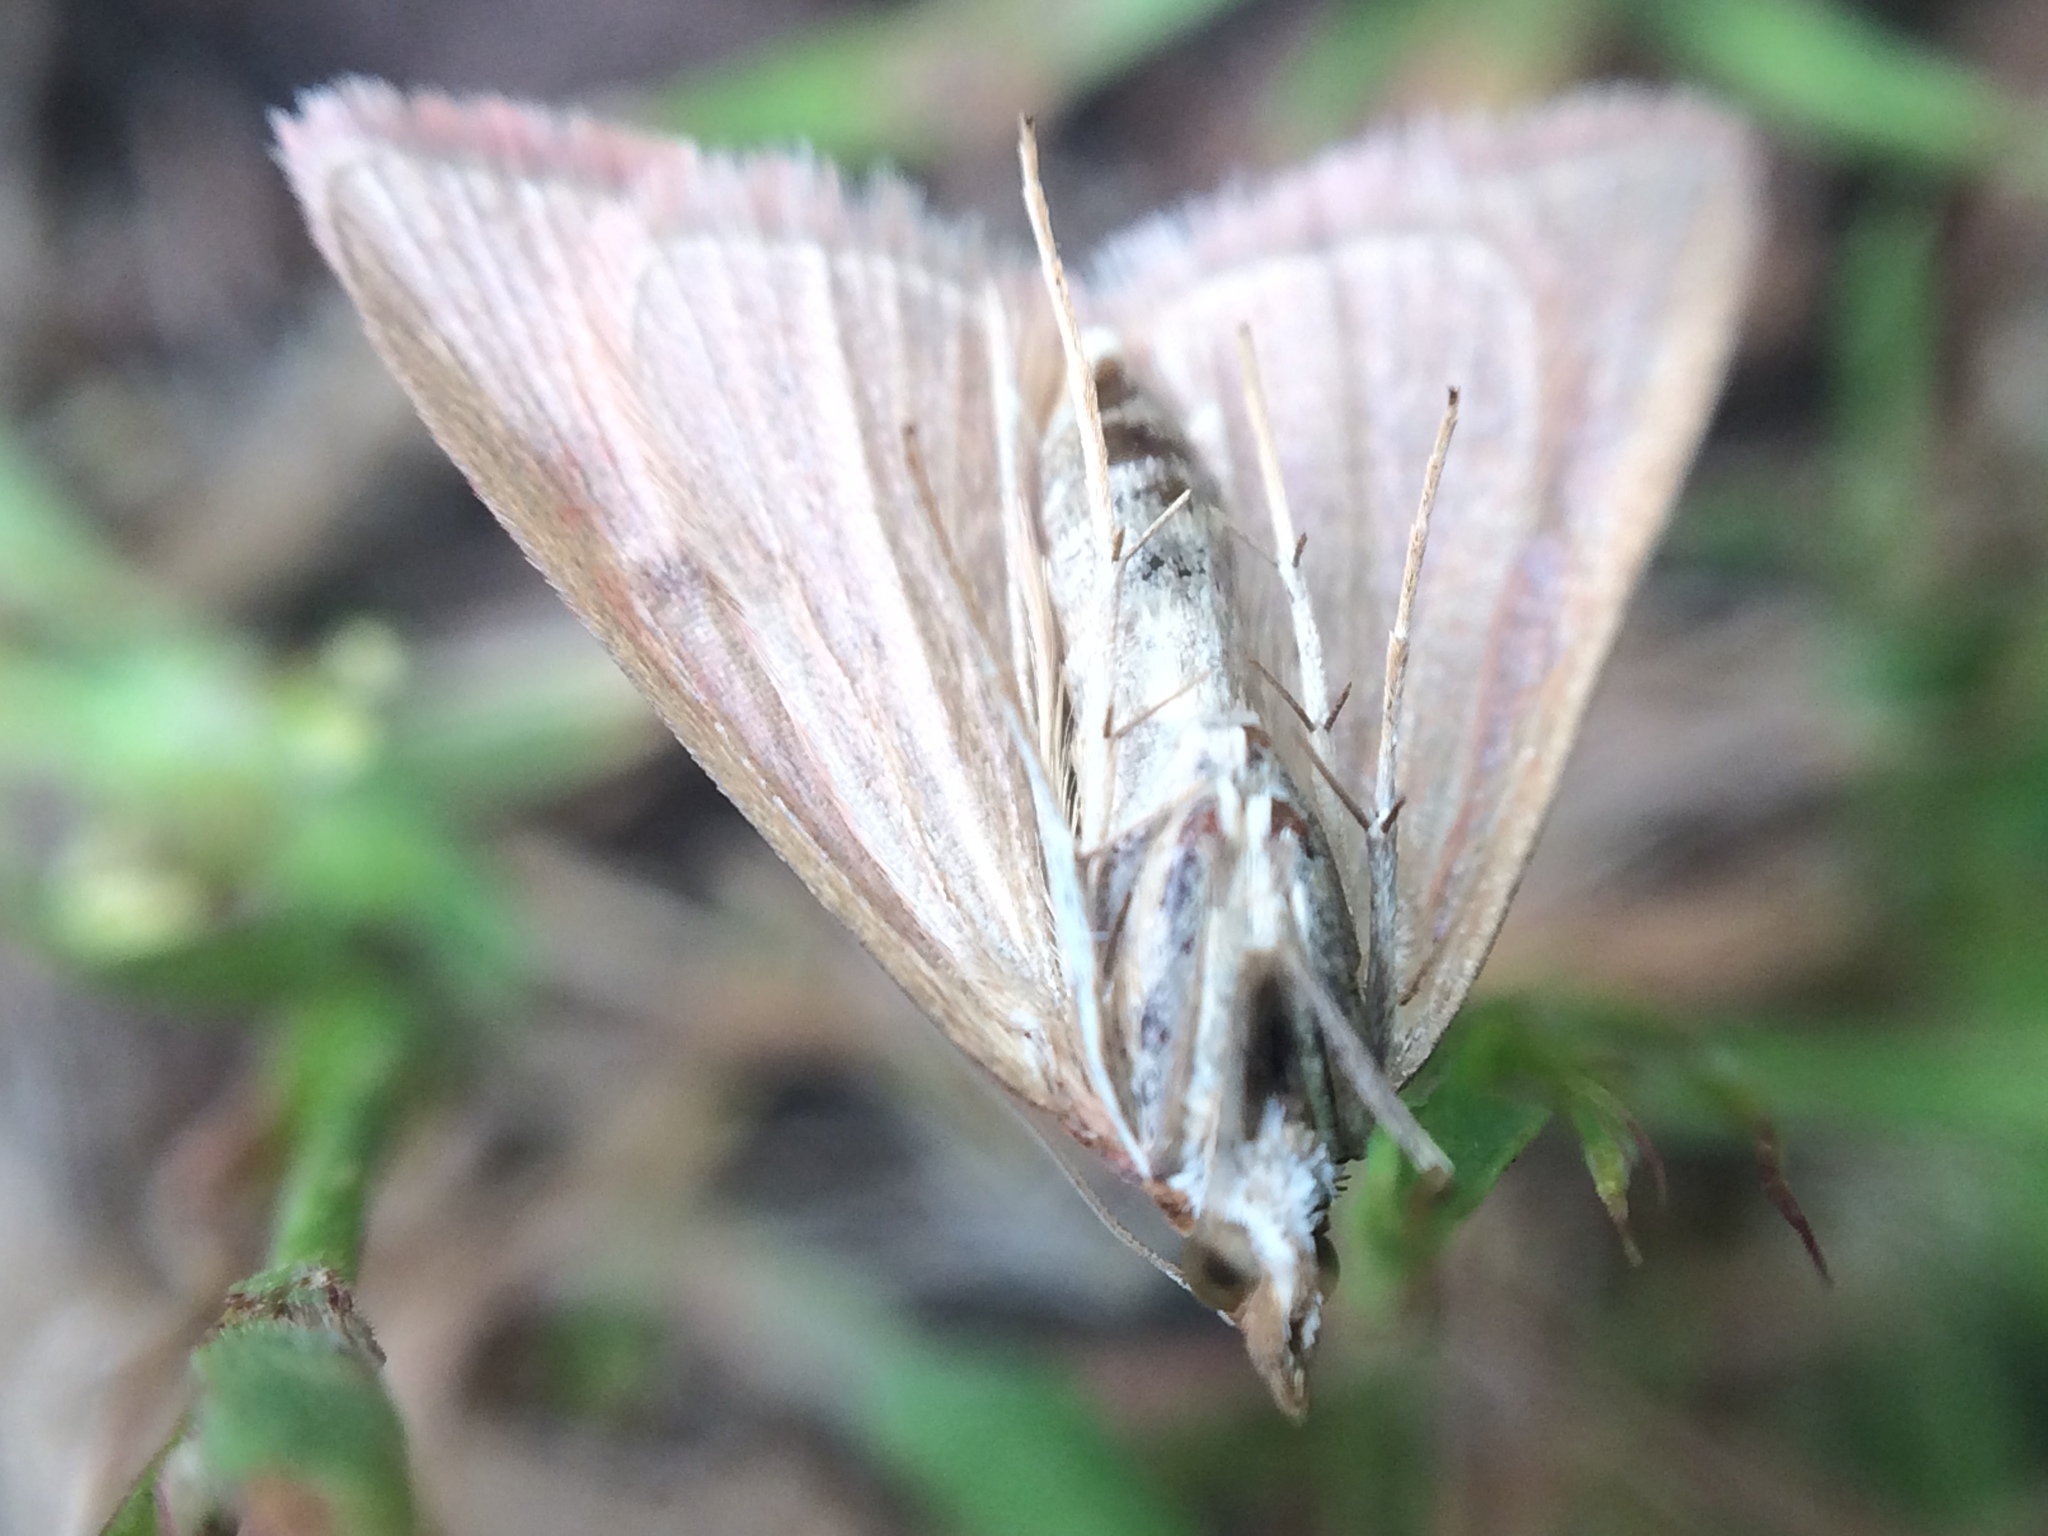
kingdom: Animalia
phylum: Arthropoda
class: Insecta
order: Lepidoptera
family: Crambidae
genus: Pyrausta
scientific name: Pyrausta laticlavia
